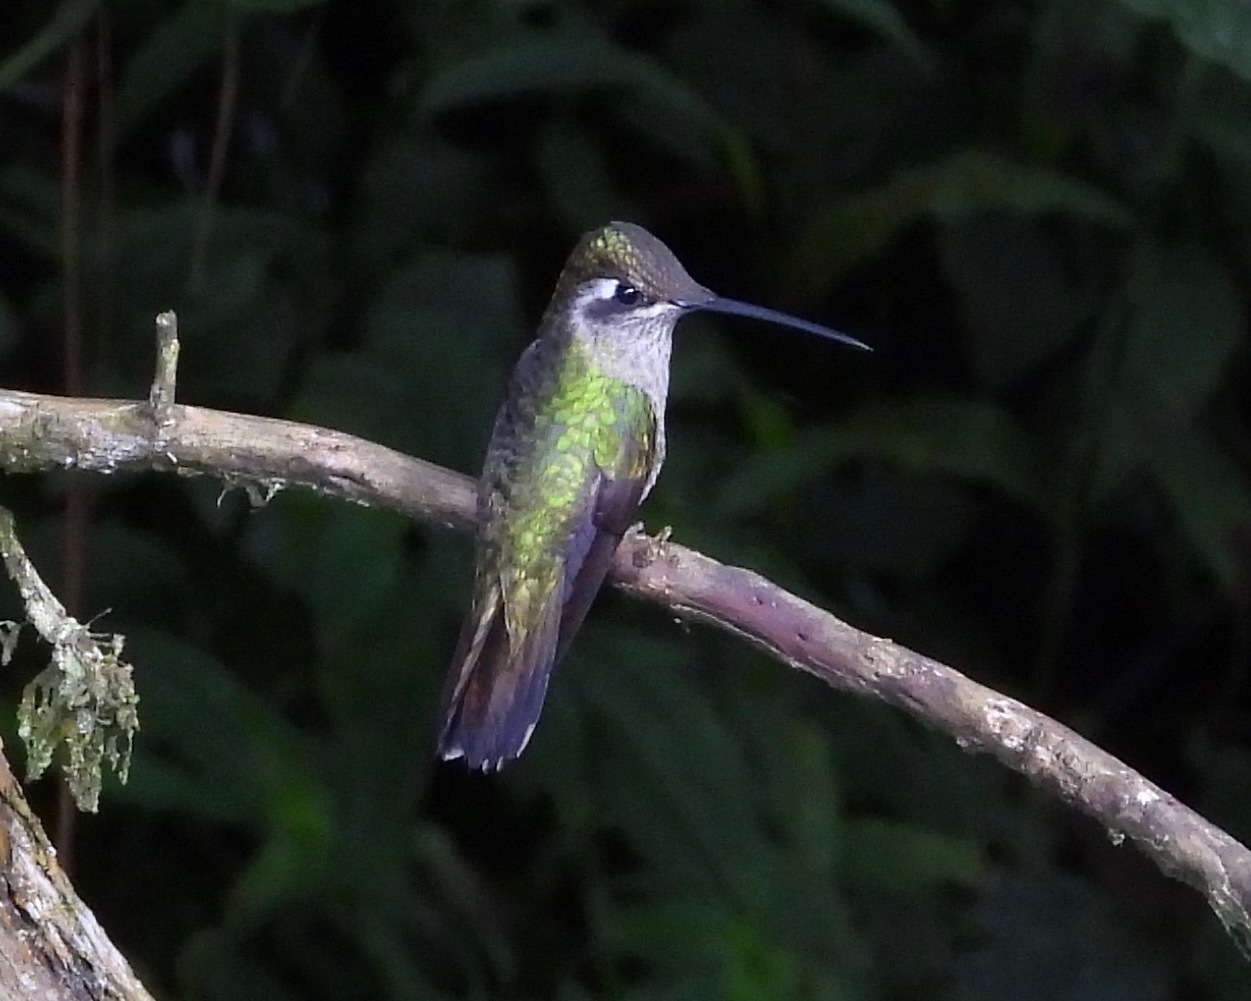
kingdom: Animalia
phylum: Chordata
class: Aves
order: Apodiformes
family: Trochilidae
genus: Eugenes
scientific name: Eugenes fulgens
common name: Magnificent hummingbird
